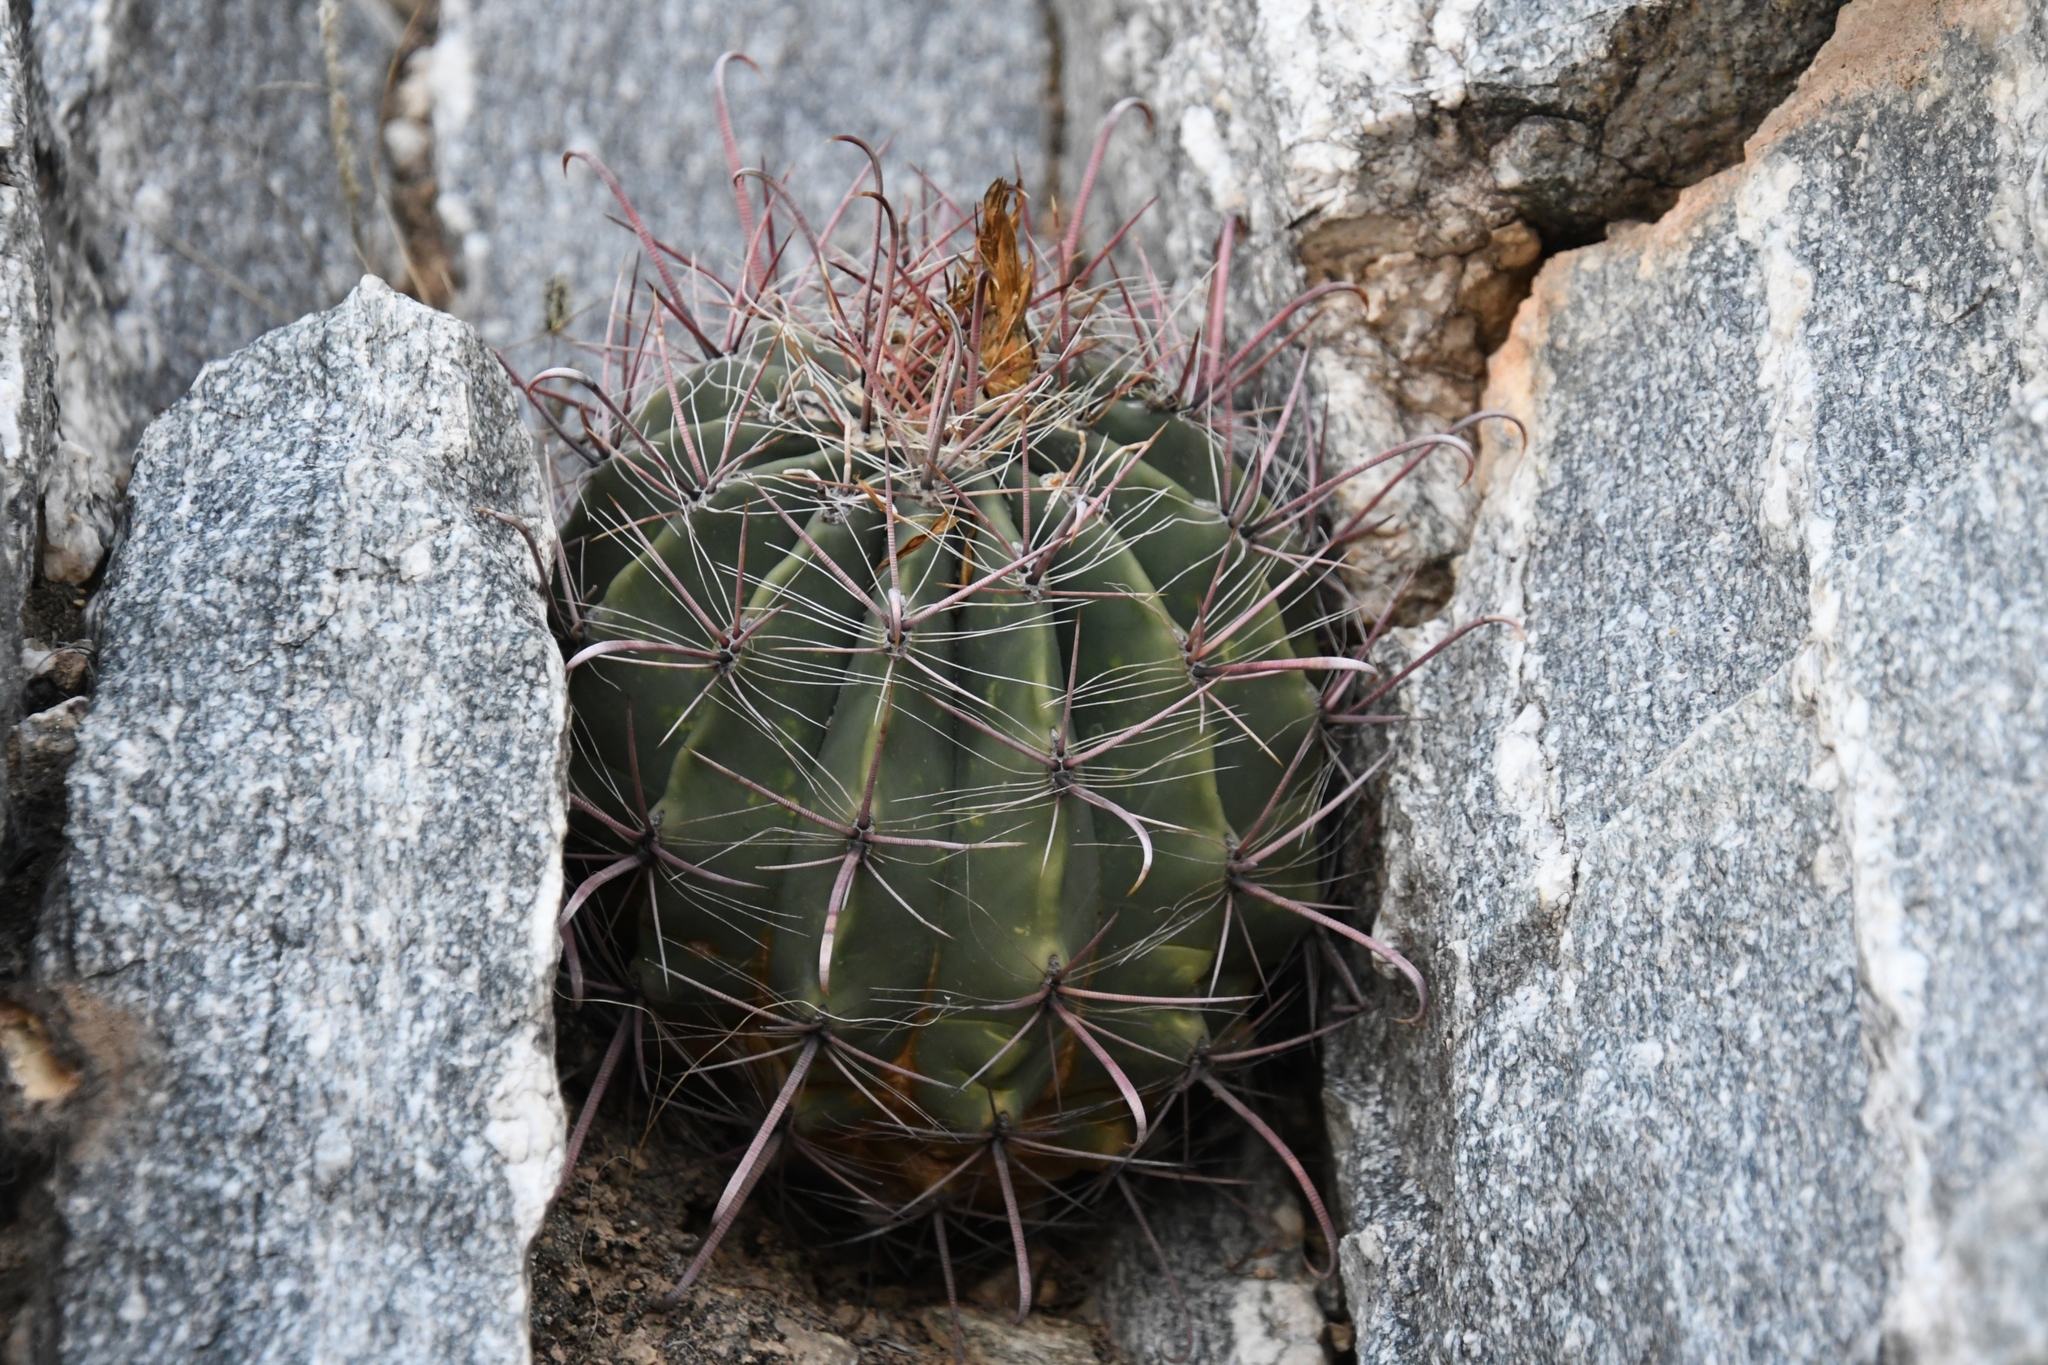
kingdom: Plantae
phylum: Tracheophyta
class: Magnoliopsida
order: Caryophyllales
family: Cactaceae
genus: Ferocactus
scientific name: Ferocactus wislizeni
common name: Candy barrel cactus
